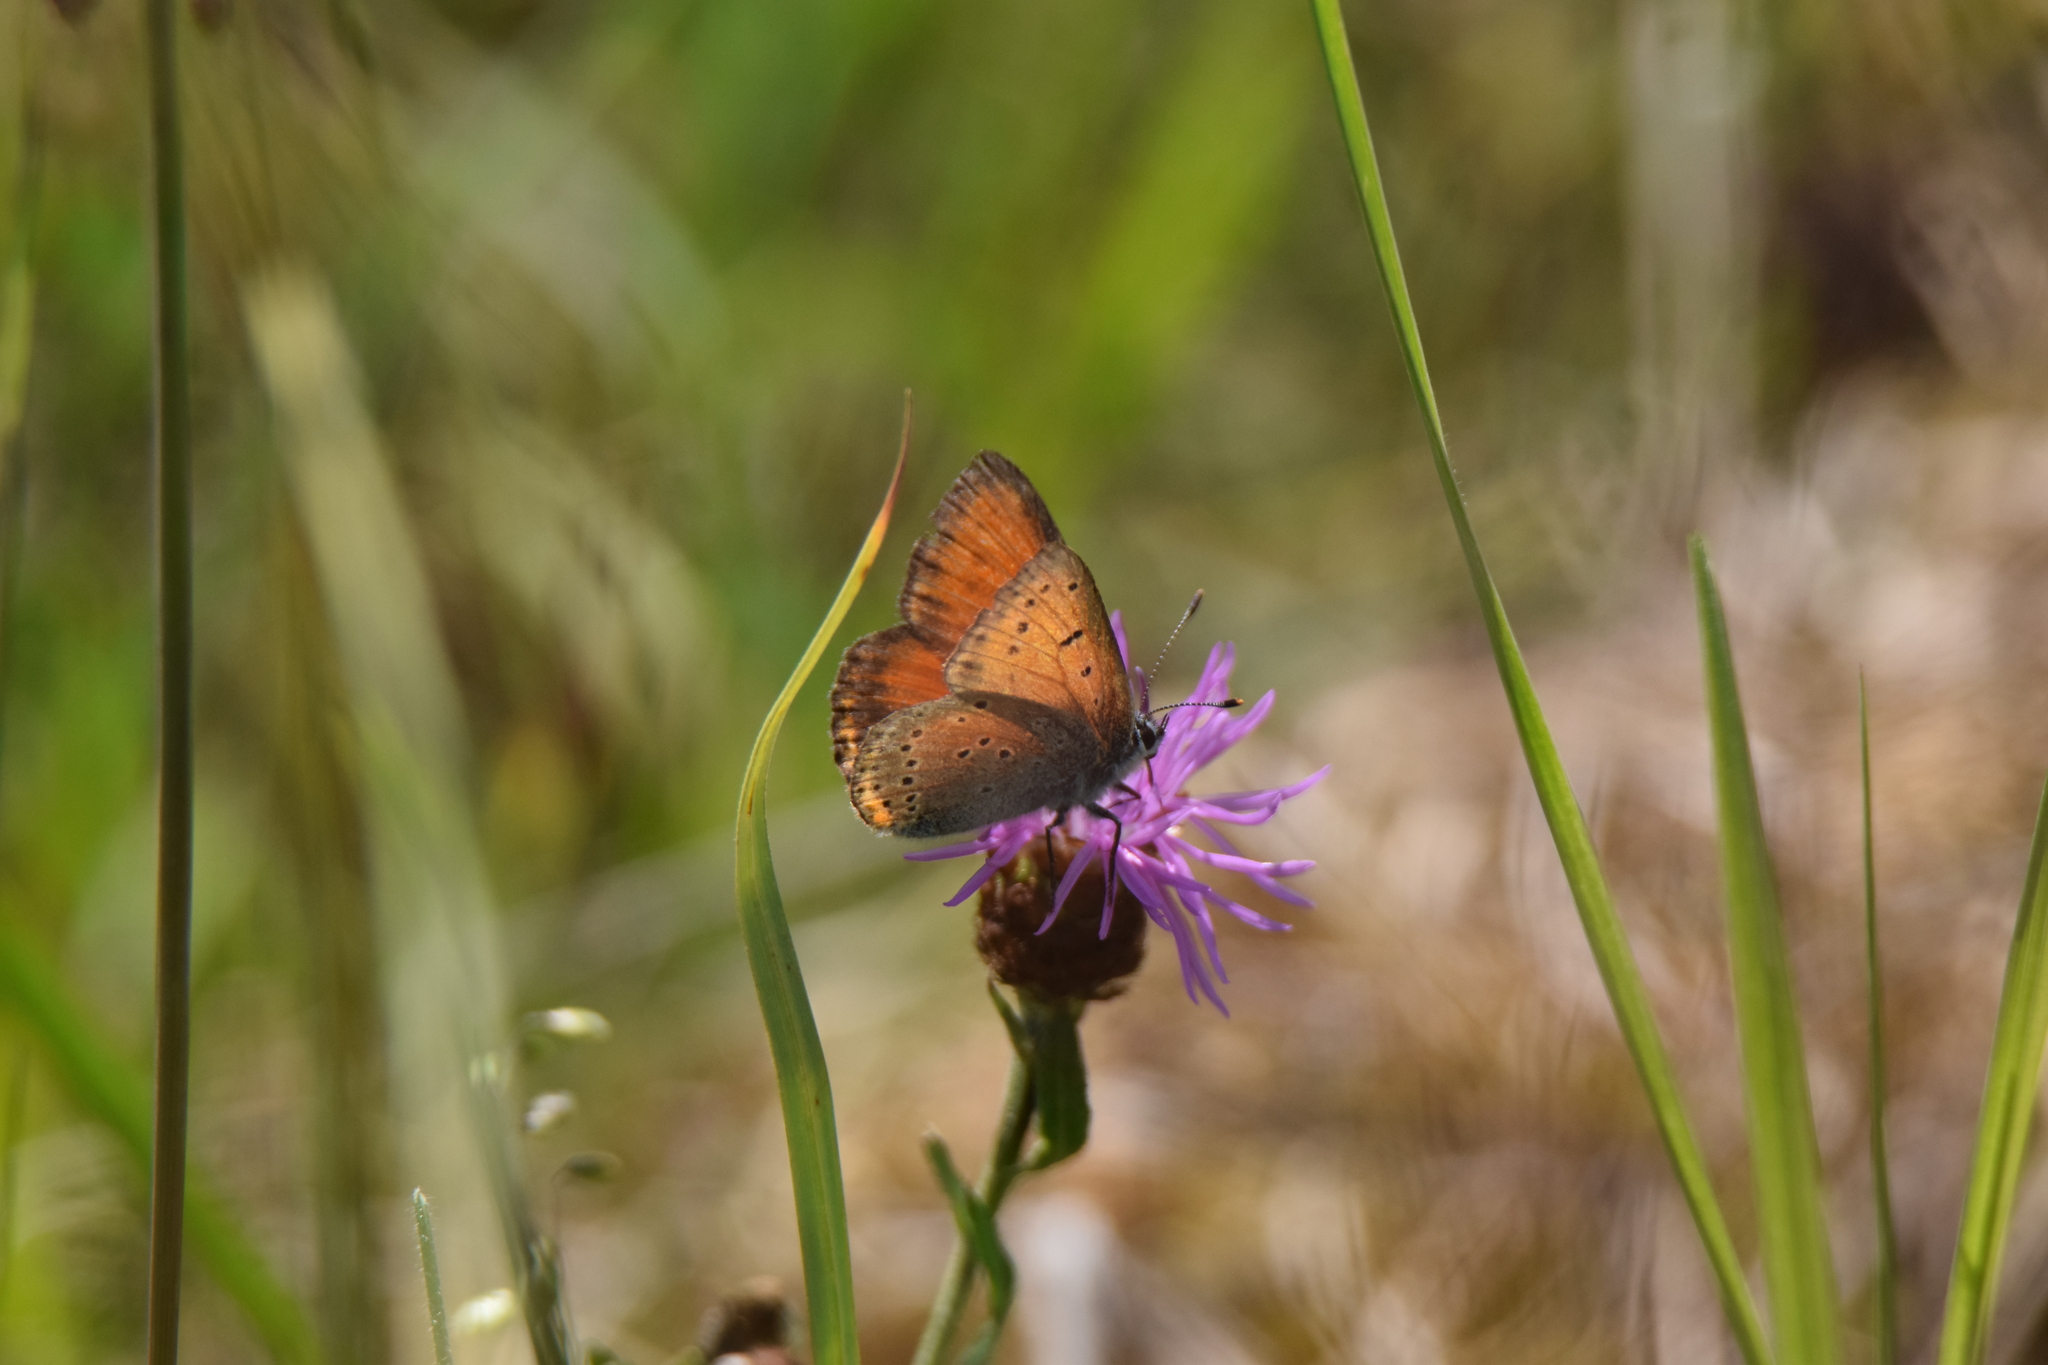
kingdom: Animalia
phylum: Arthropoda
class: Insecta
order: Lepidoptera
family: Lycaenidae
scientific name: Lycaenidae
